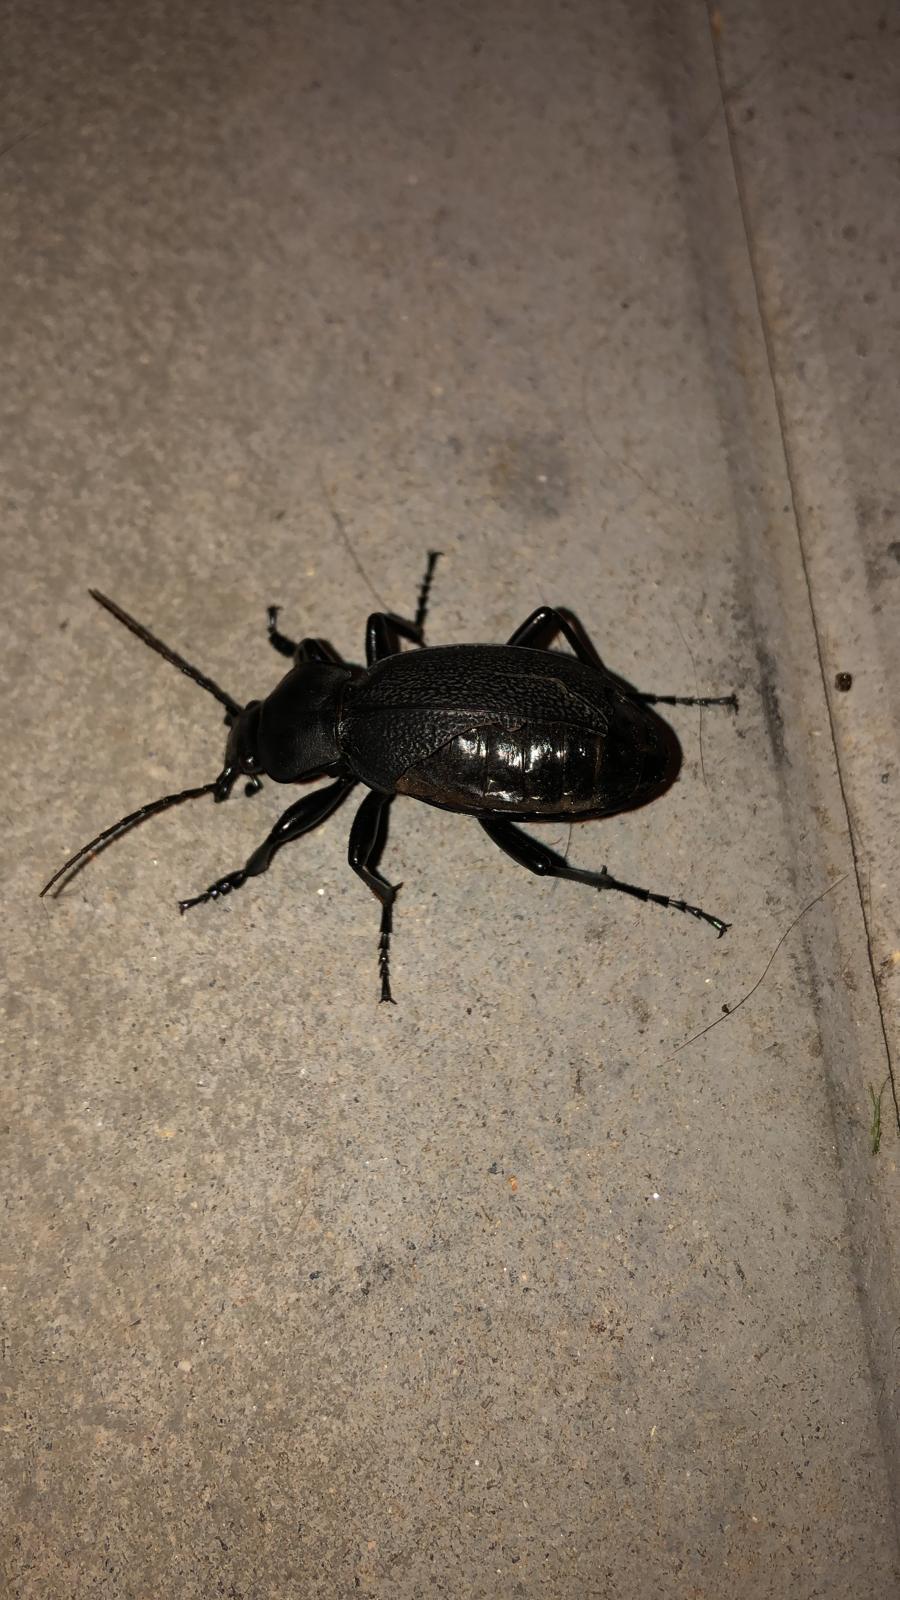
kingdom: Animalia
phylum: Arthropoda
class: Insecta
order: Coleoptera
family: Carabidae
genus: Carabus
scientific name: Carabus coriaceus
